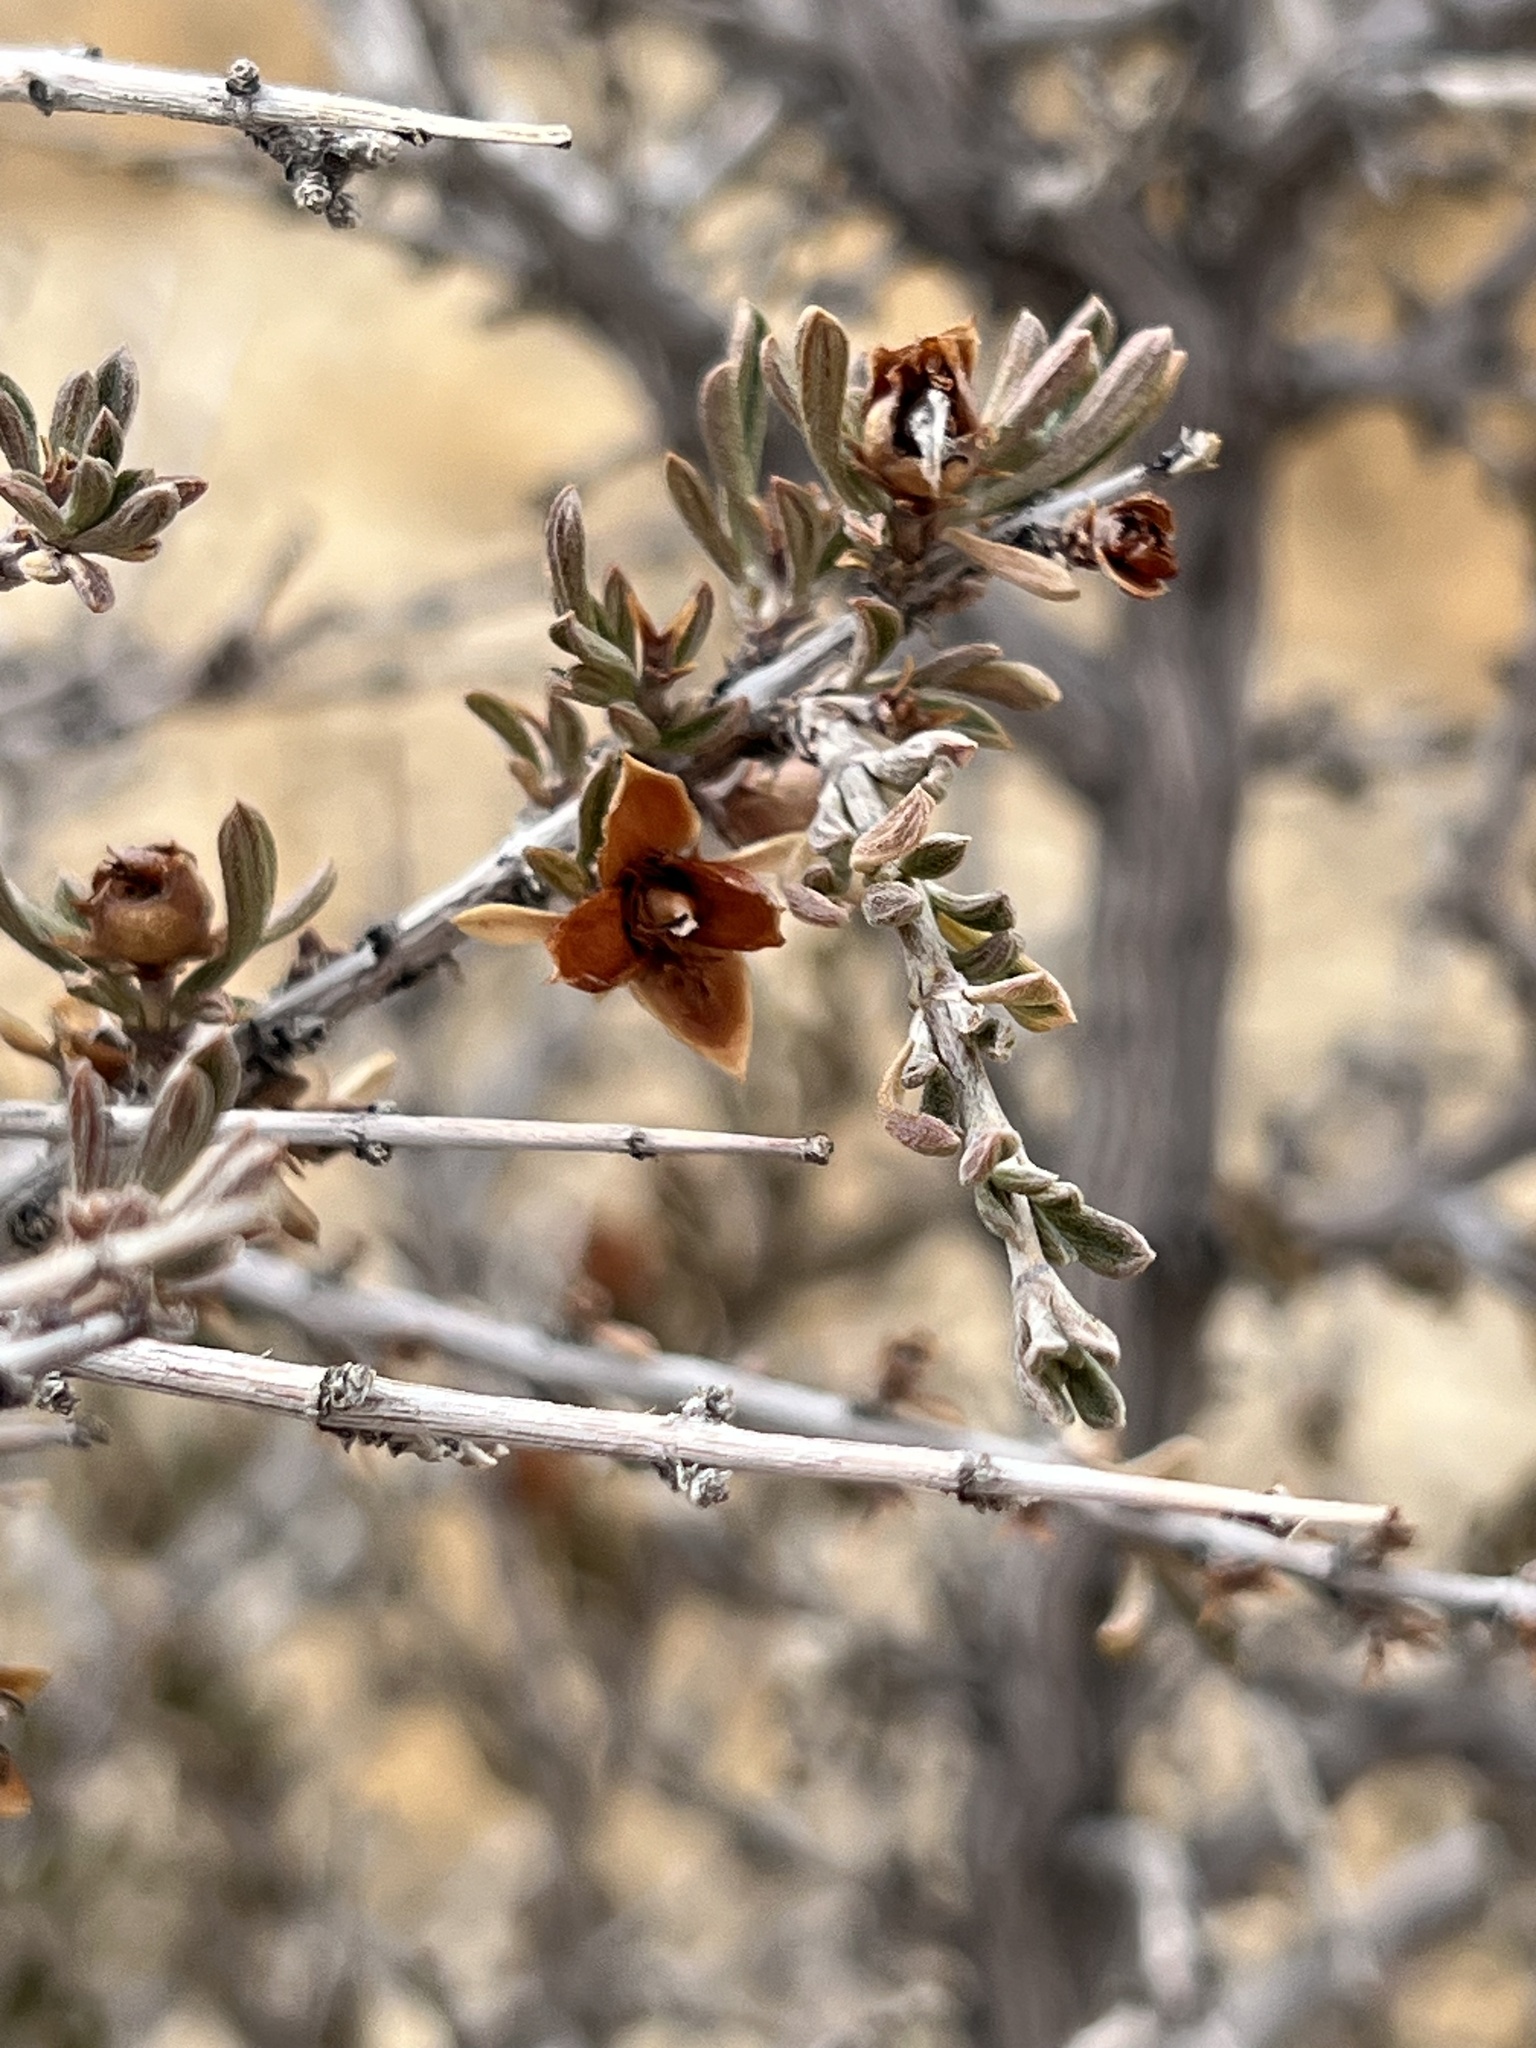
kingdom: Plantae
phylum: Tracheophyta
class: Magnoliopsida
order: Rosales
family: Rosaceae
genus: Coleogyne
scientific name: Coleogyne ramosissima
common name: Blackbrush
